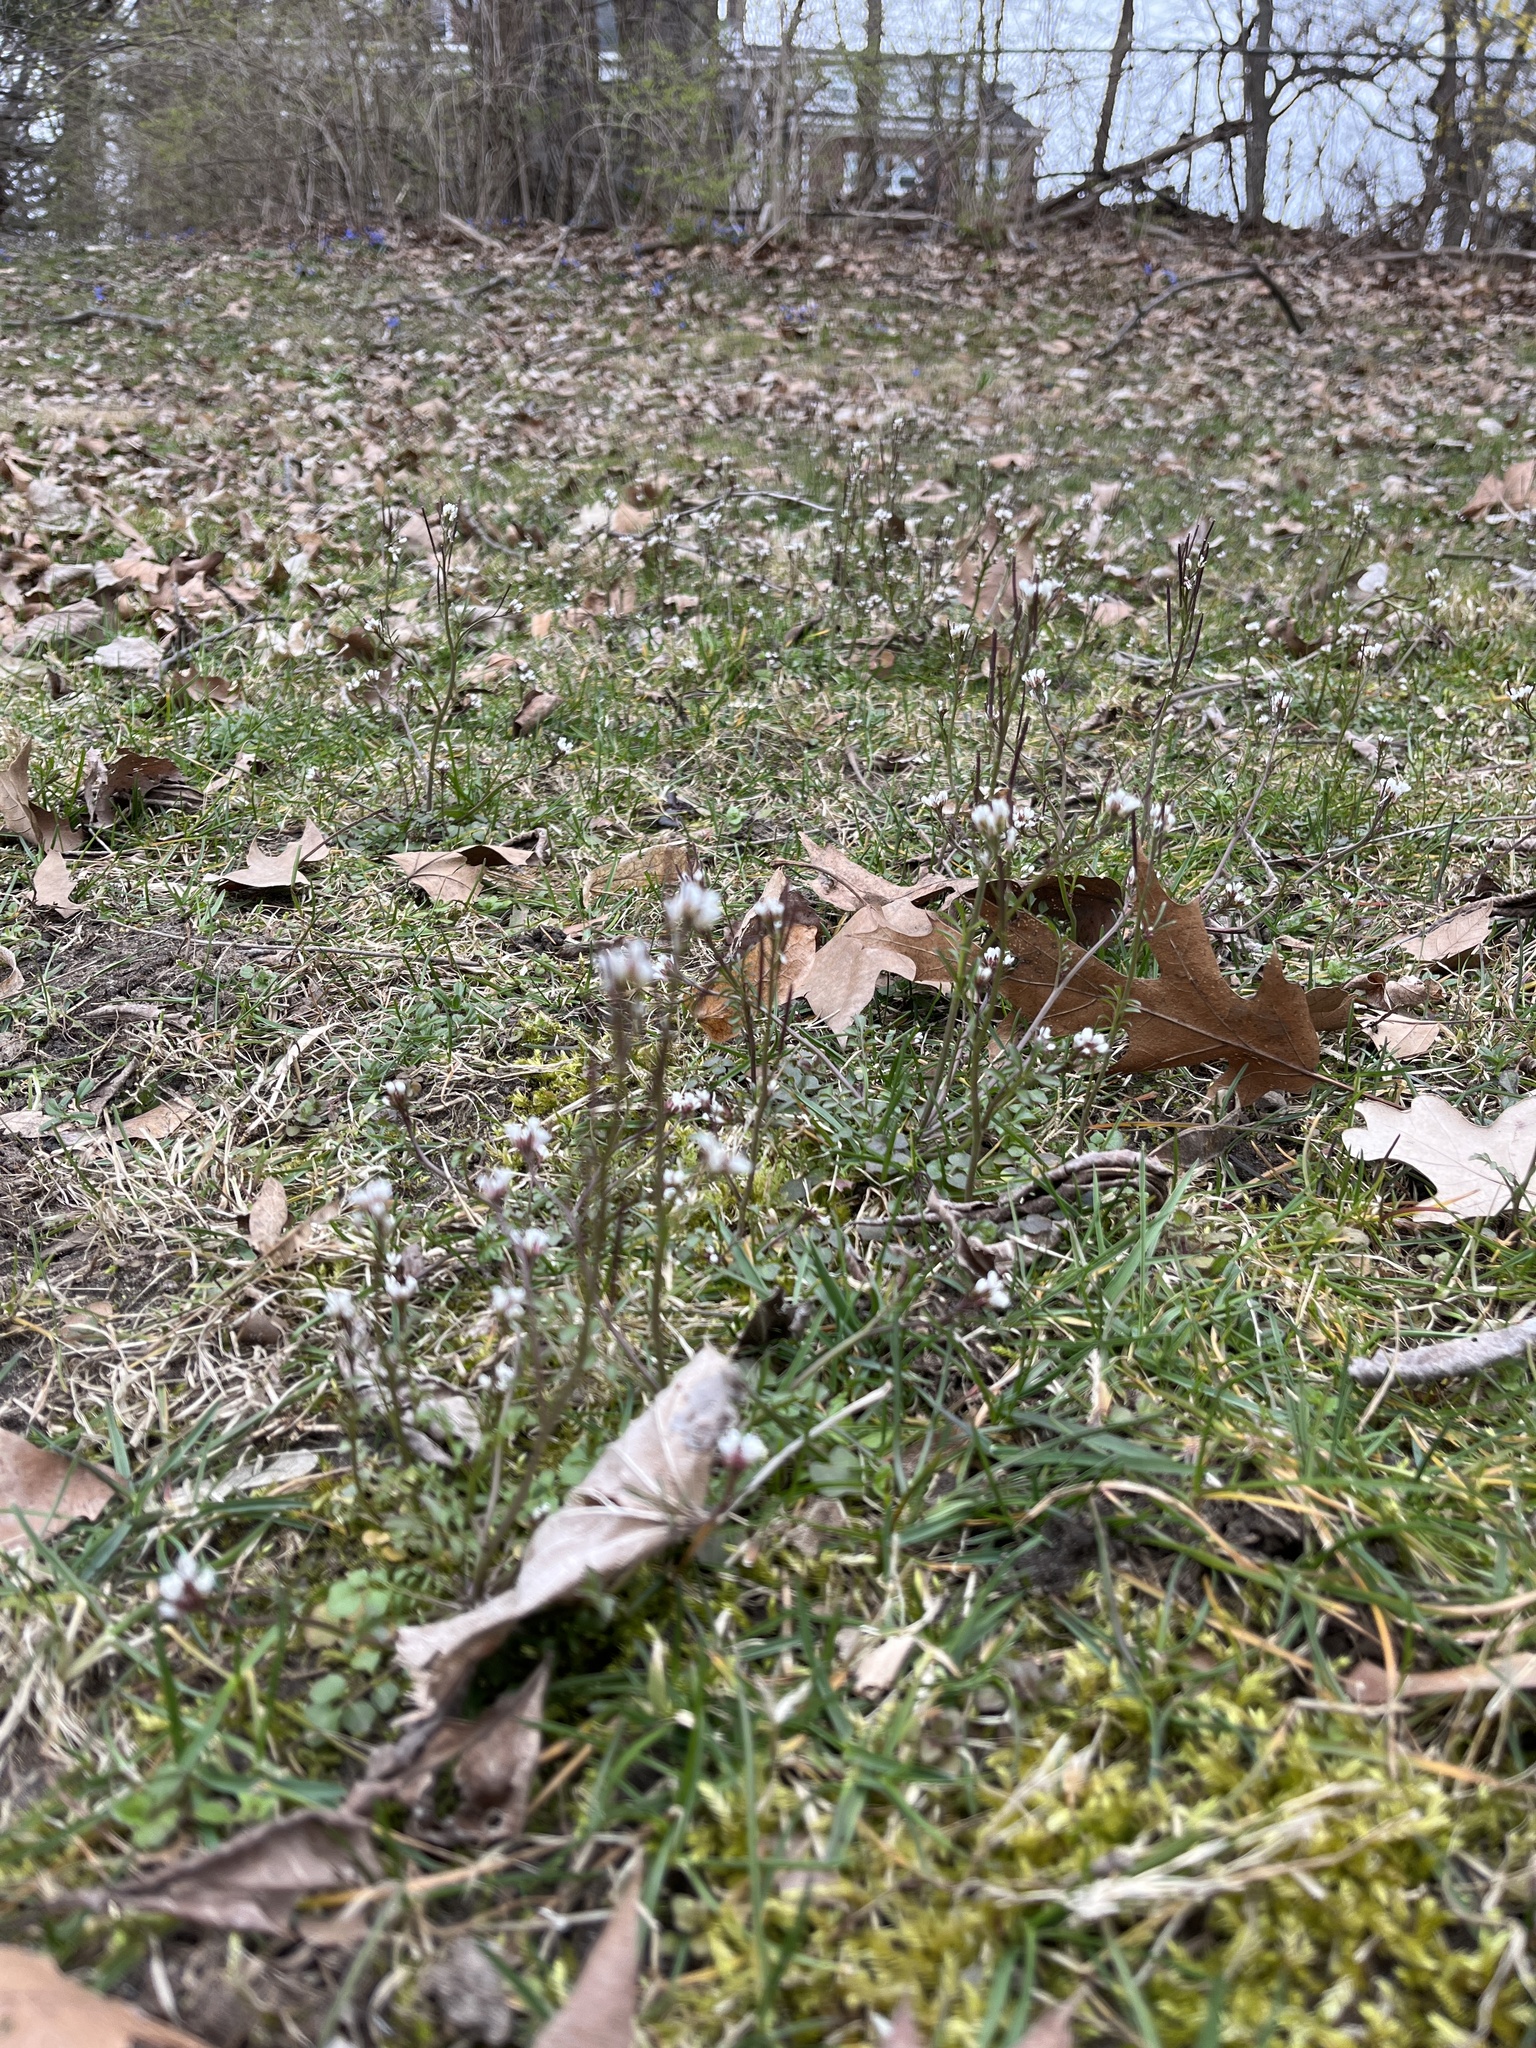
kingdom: Plantae
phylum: Tracheophyta
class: Magnoliopsida
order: Brassicales
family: Brassicaceae
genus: Cardamine
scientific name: Cardamine hirsuta
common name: Hairy bittercress
